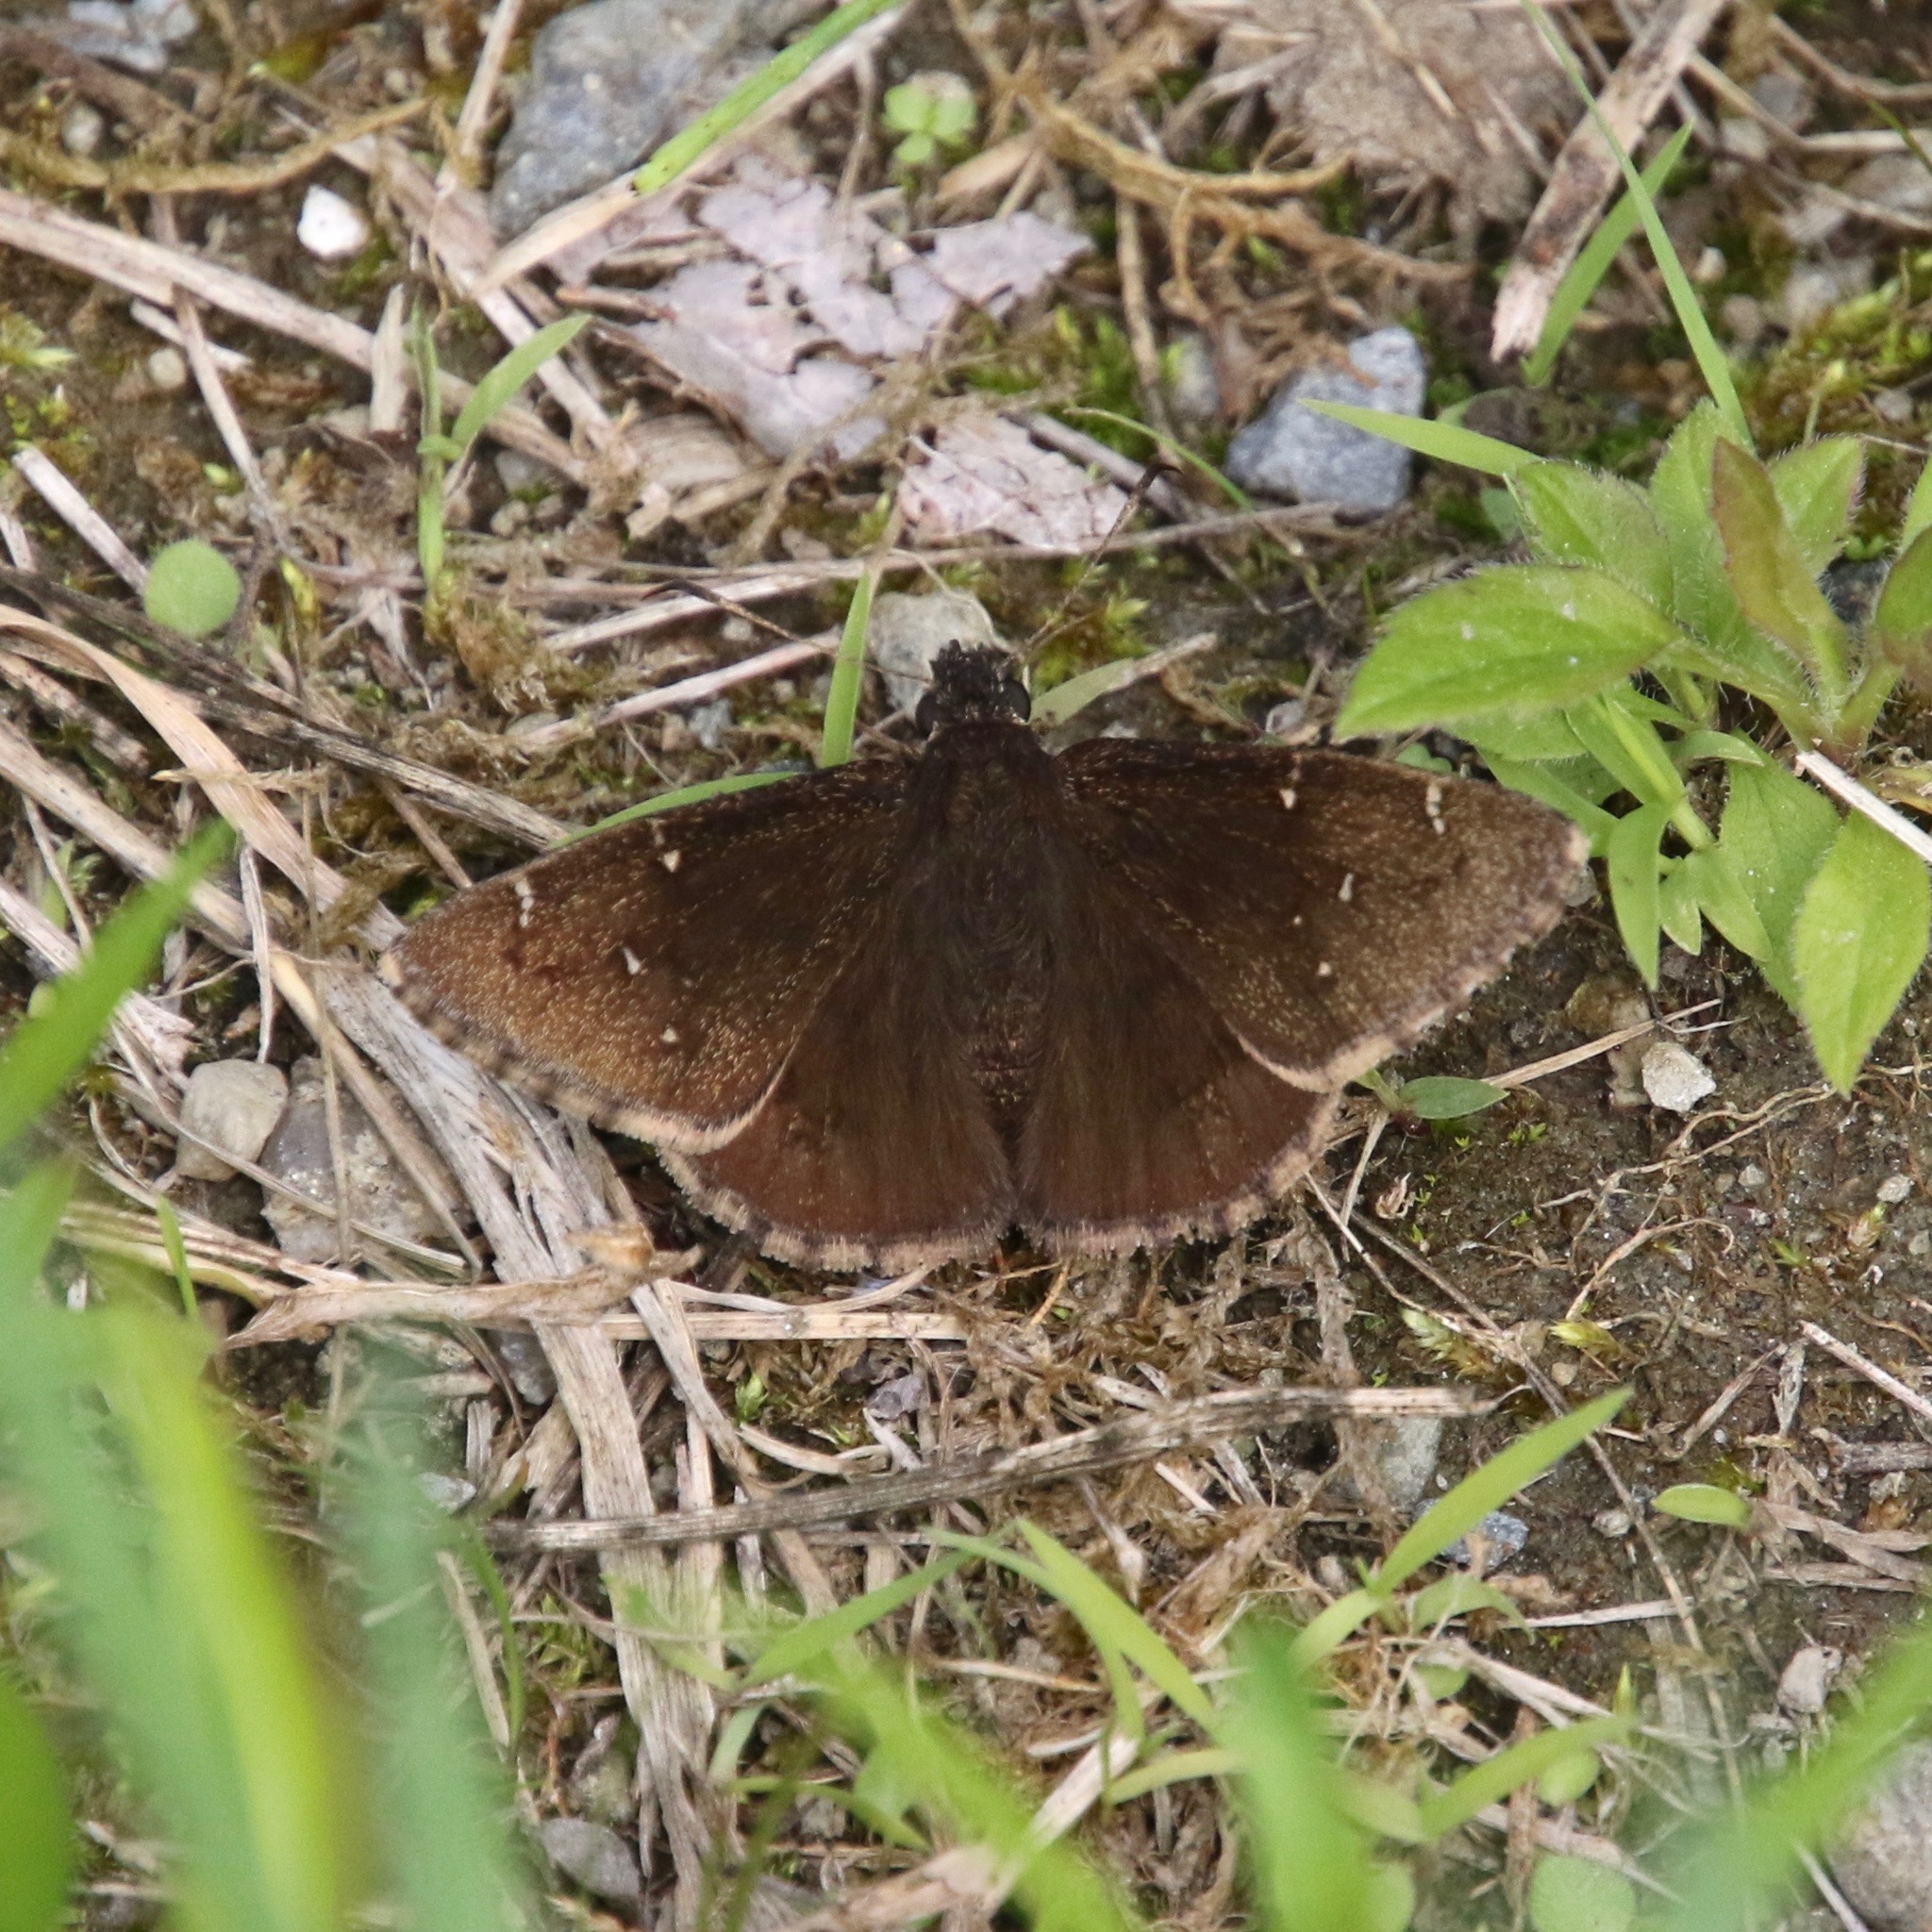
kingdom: Animalia
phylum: Arthropoda
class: Insecta
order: Lepidoptera
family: Hesperiidae
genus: Thorybes
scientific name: Thorybes pylades
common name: Northern cloudywing
